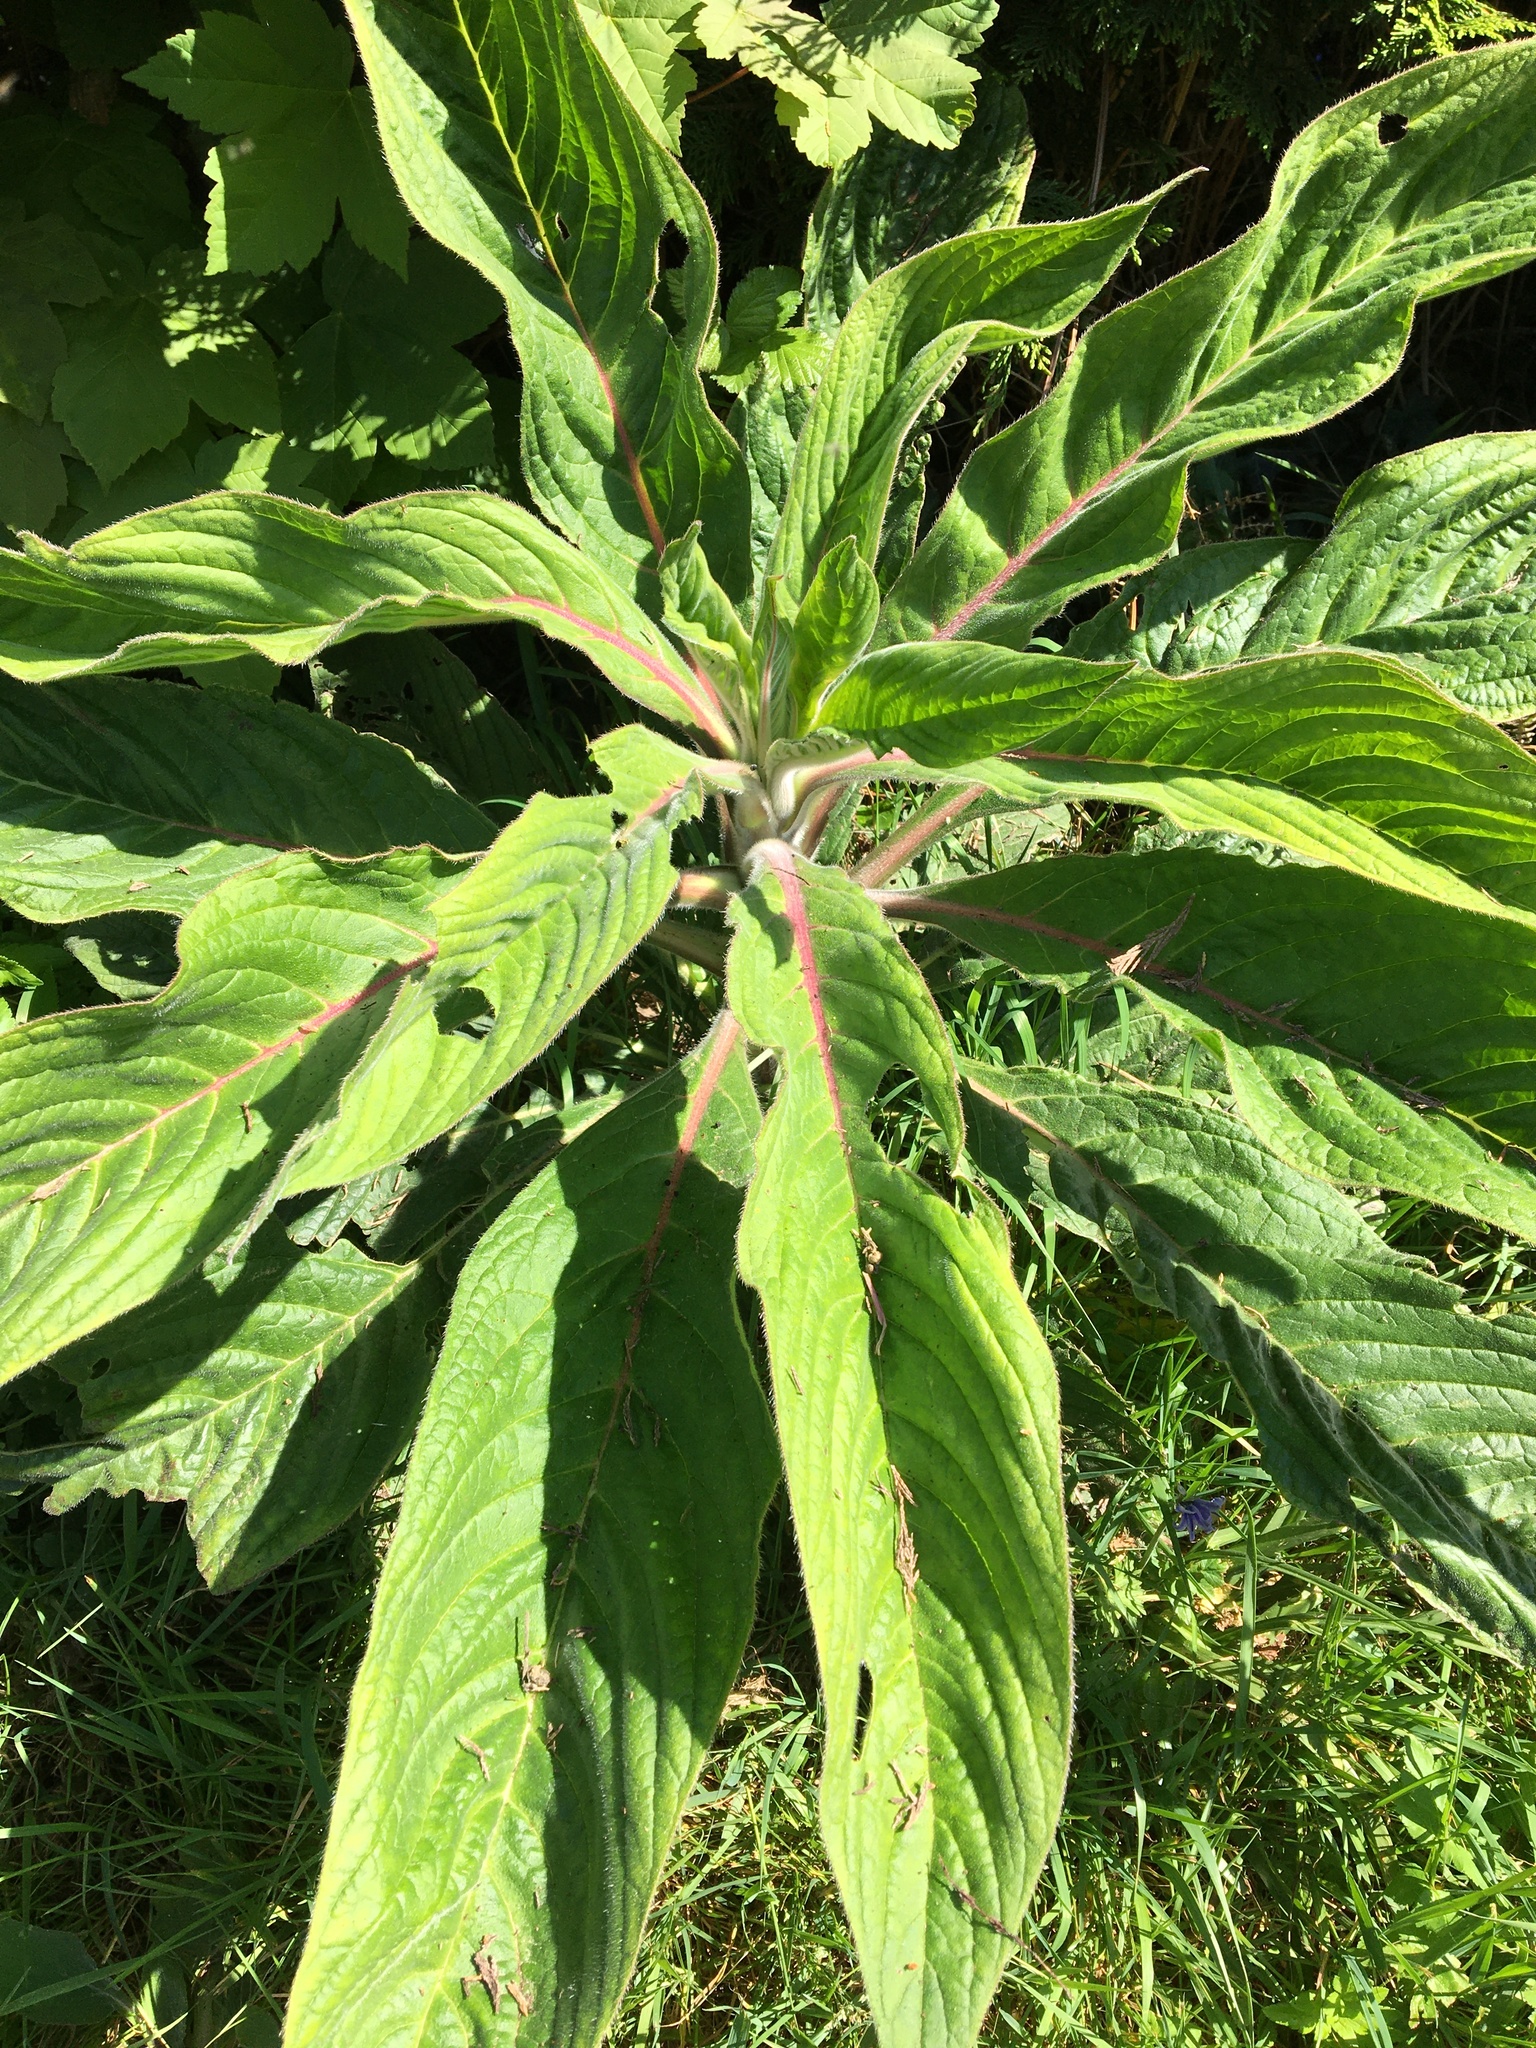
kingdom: Plantae
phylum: Tracheophyta
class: Magnoliopsida
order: Boraginales
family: Boraginaceae
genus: Echium
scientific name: Echium pininana
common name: Giant viper's-bugloss
